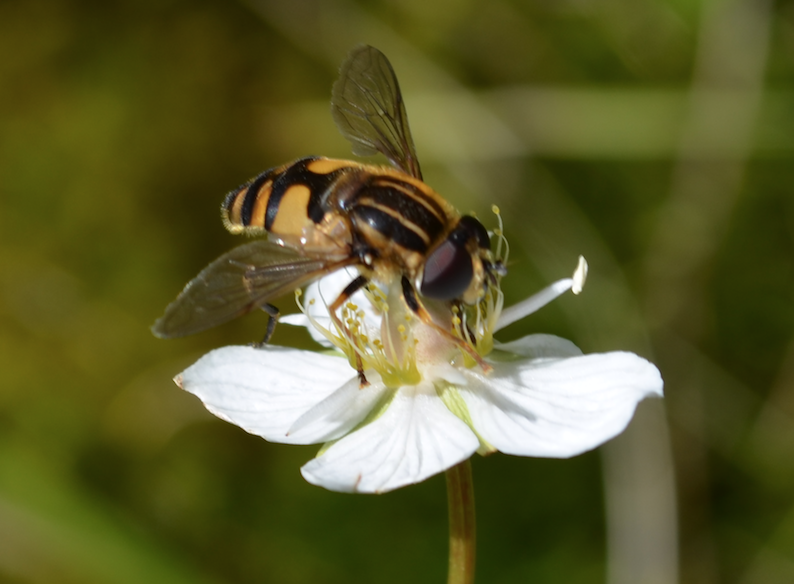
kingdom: Animalia
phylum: Arthropoda
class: Insecta
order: Diptera
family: Syrphidae
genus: Helophilus
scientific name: Helophilus neoaffinis
